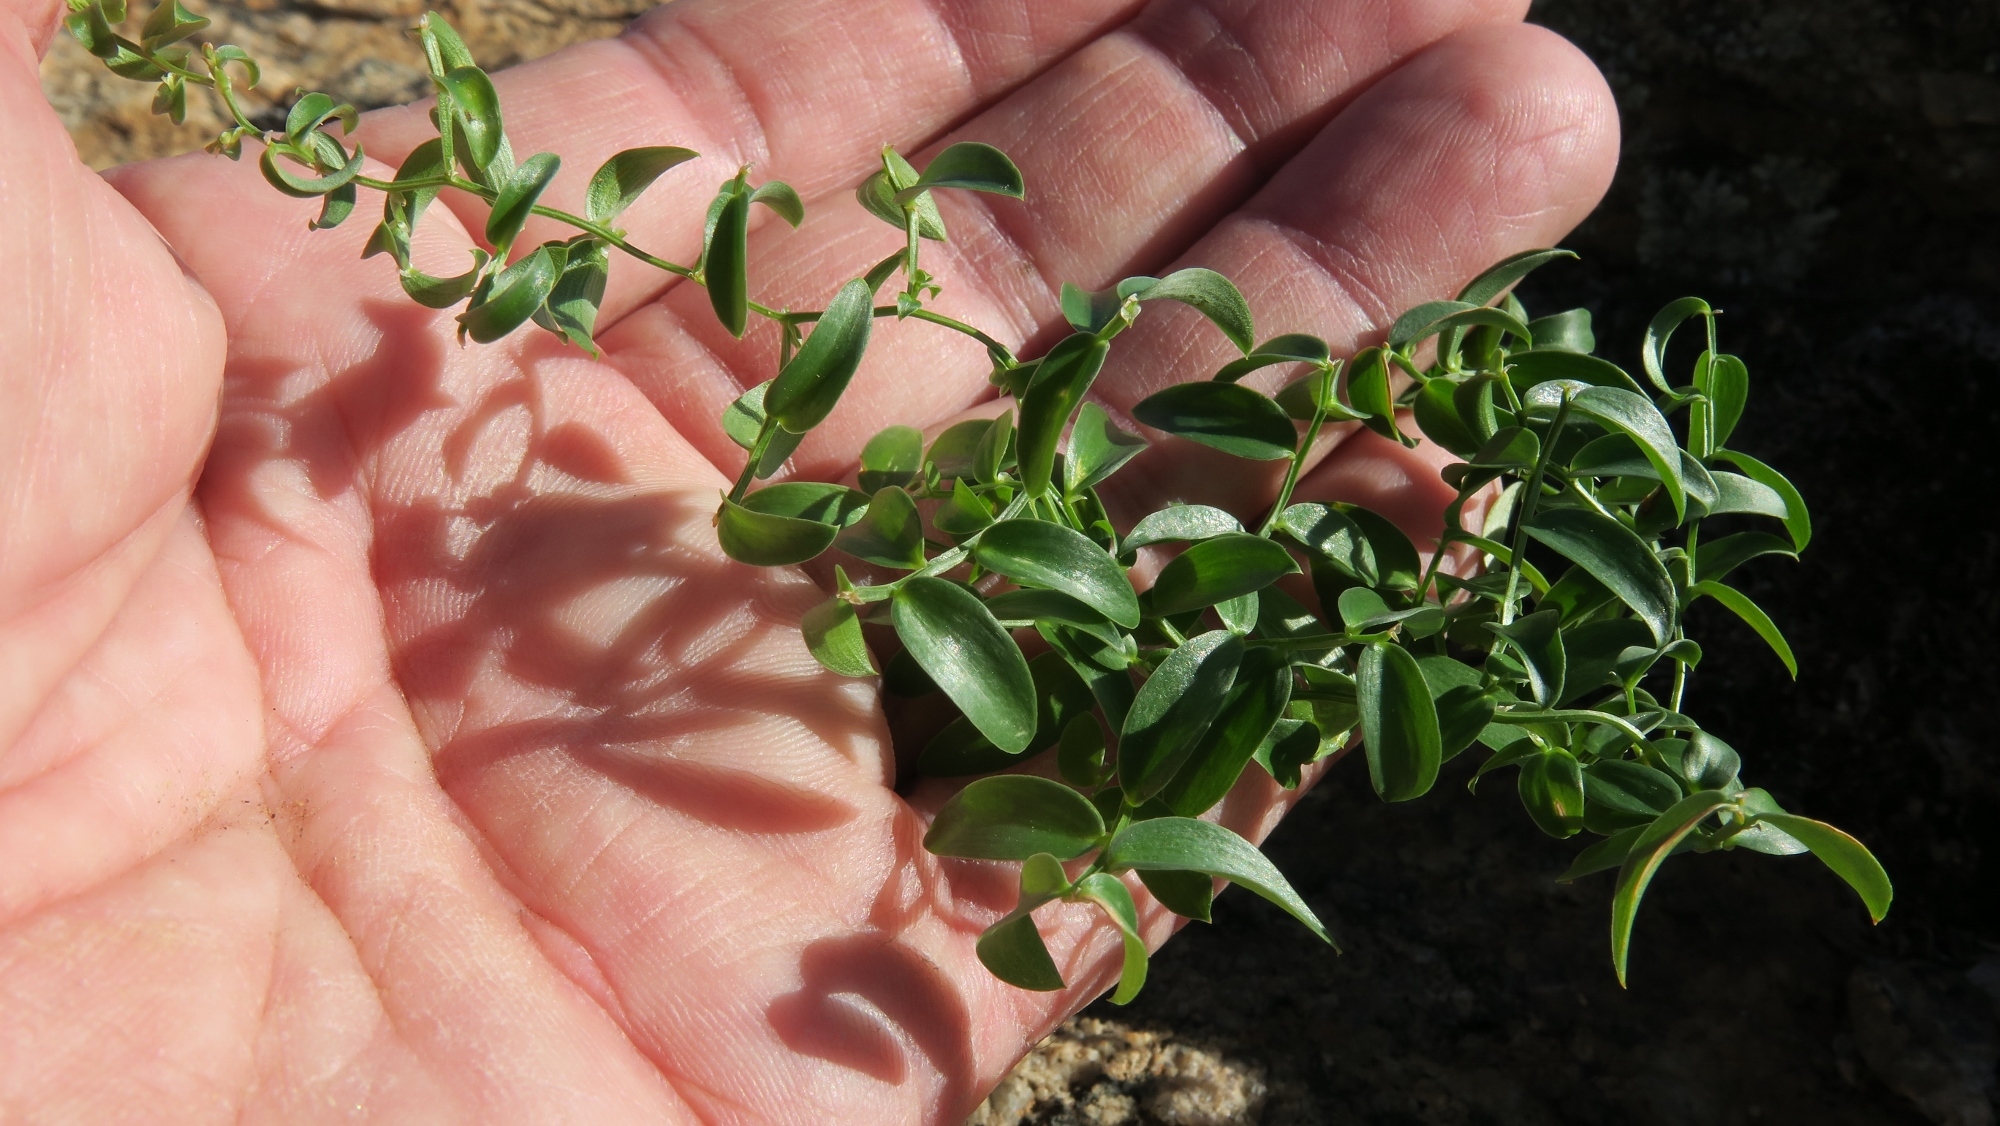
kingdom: Plantae
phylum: Tracheophyta
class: Liliopsida
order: Asparagales
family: Asparagaceae
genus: Asparagus
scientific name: Asparagus asparagoides
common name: African asparagus fern
